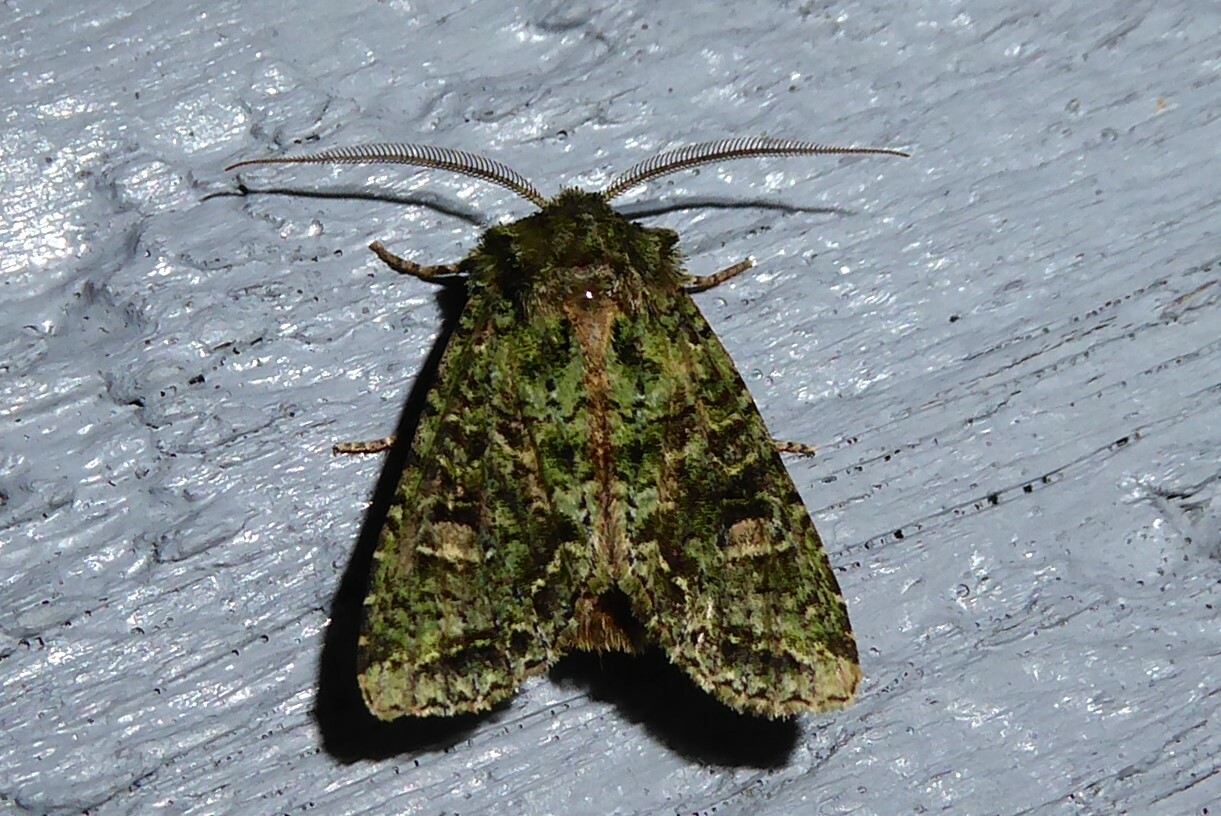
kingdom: Animalia
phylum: Arthropoda
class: Insecta
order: Lepidoptera
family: Noctuidae
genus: Ichneutica
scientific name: Ichneutica
